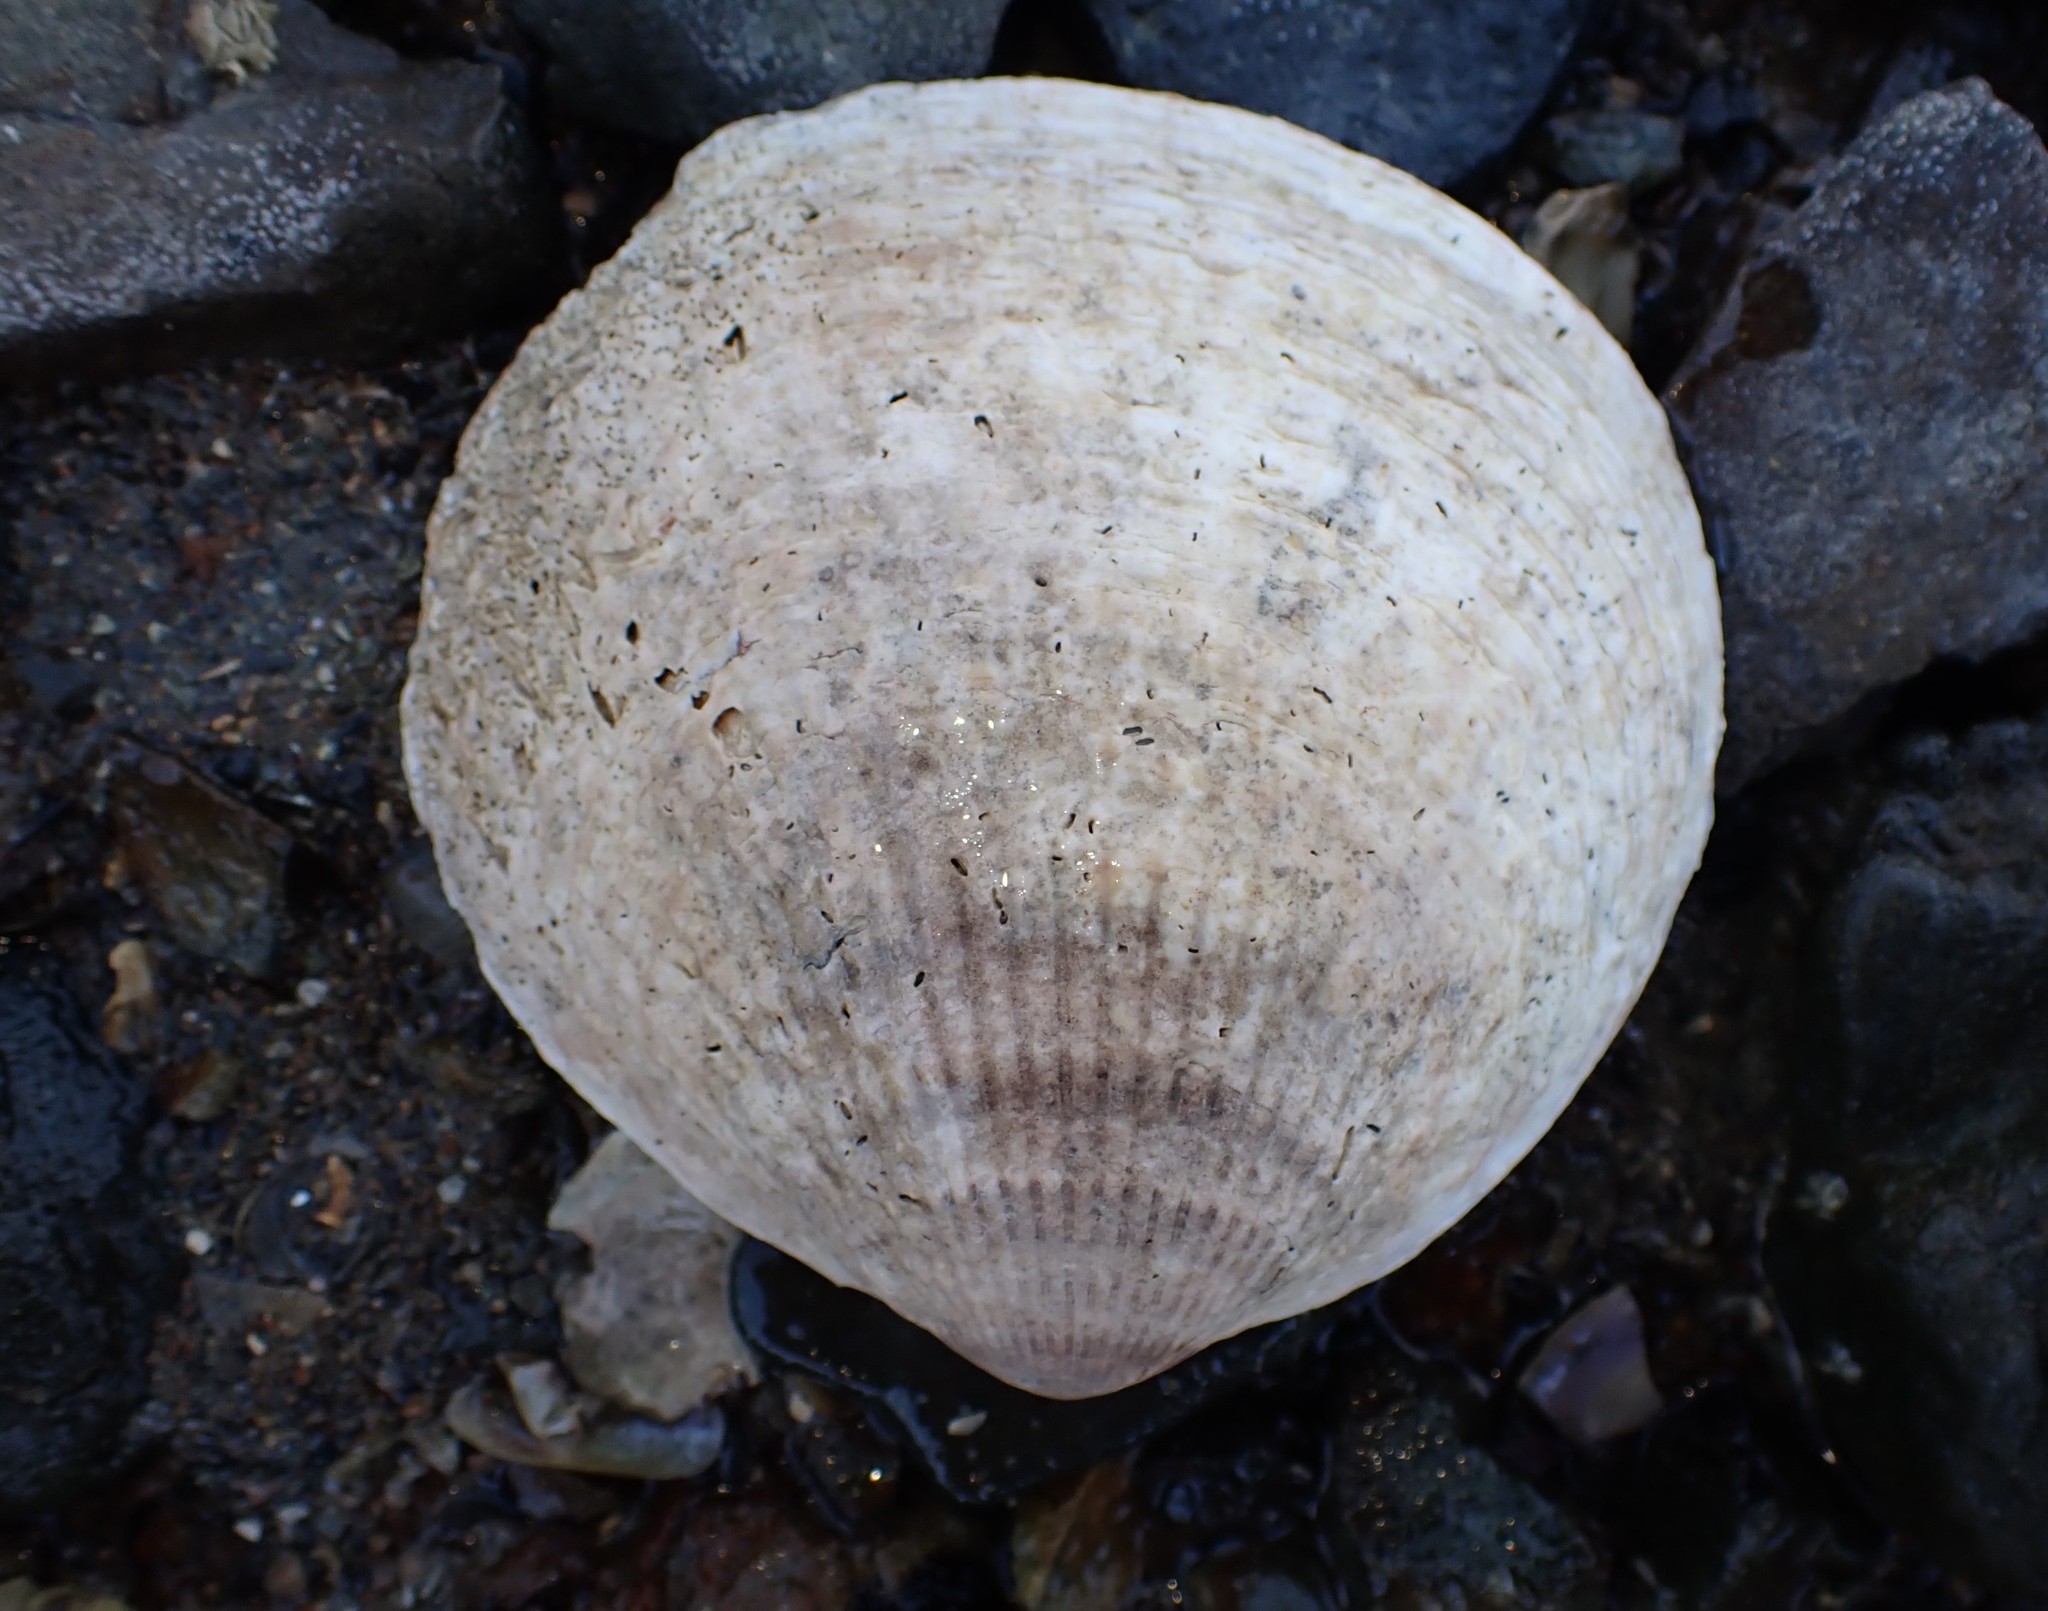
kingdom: Animalia
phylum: Mollusca
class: Bivalvia
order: Arcida
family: Glycymerididae
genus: Tucetona
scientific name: Tucetona laticostata
